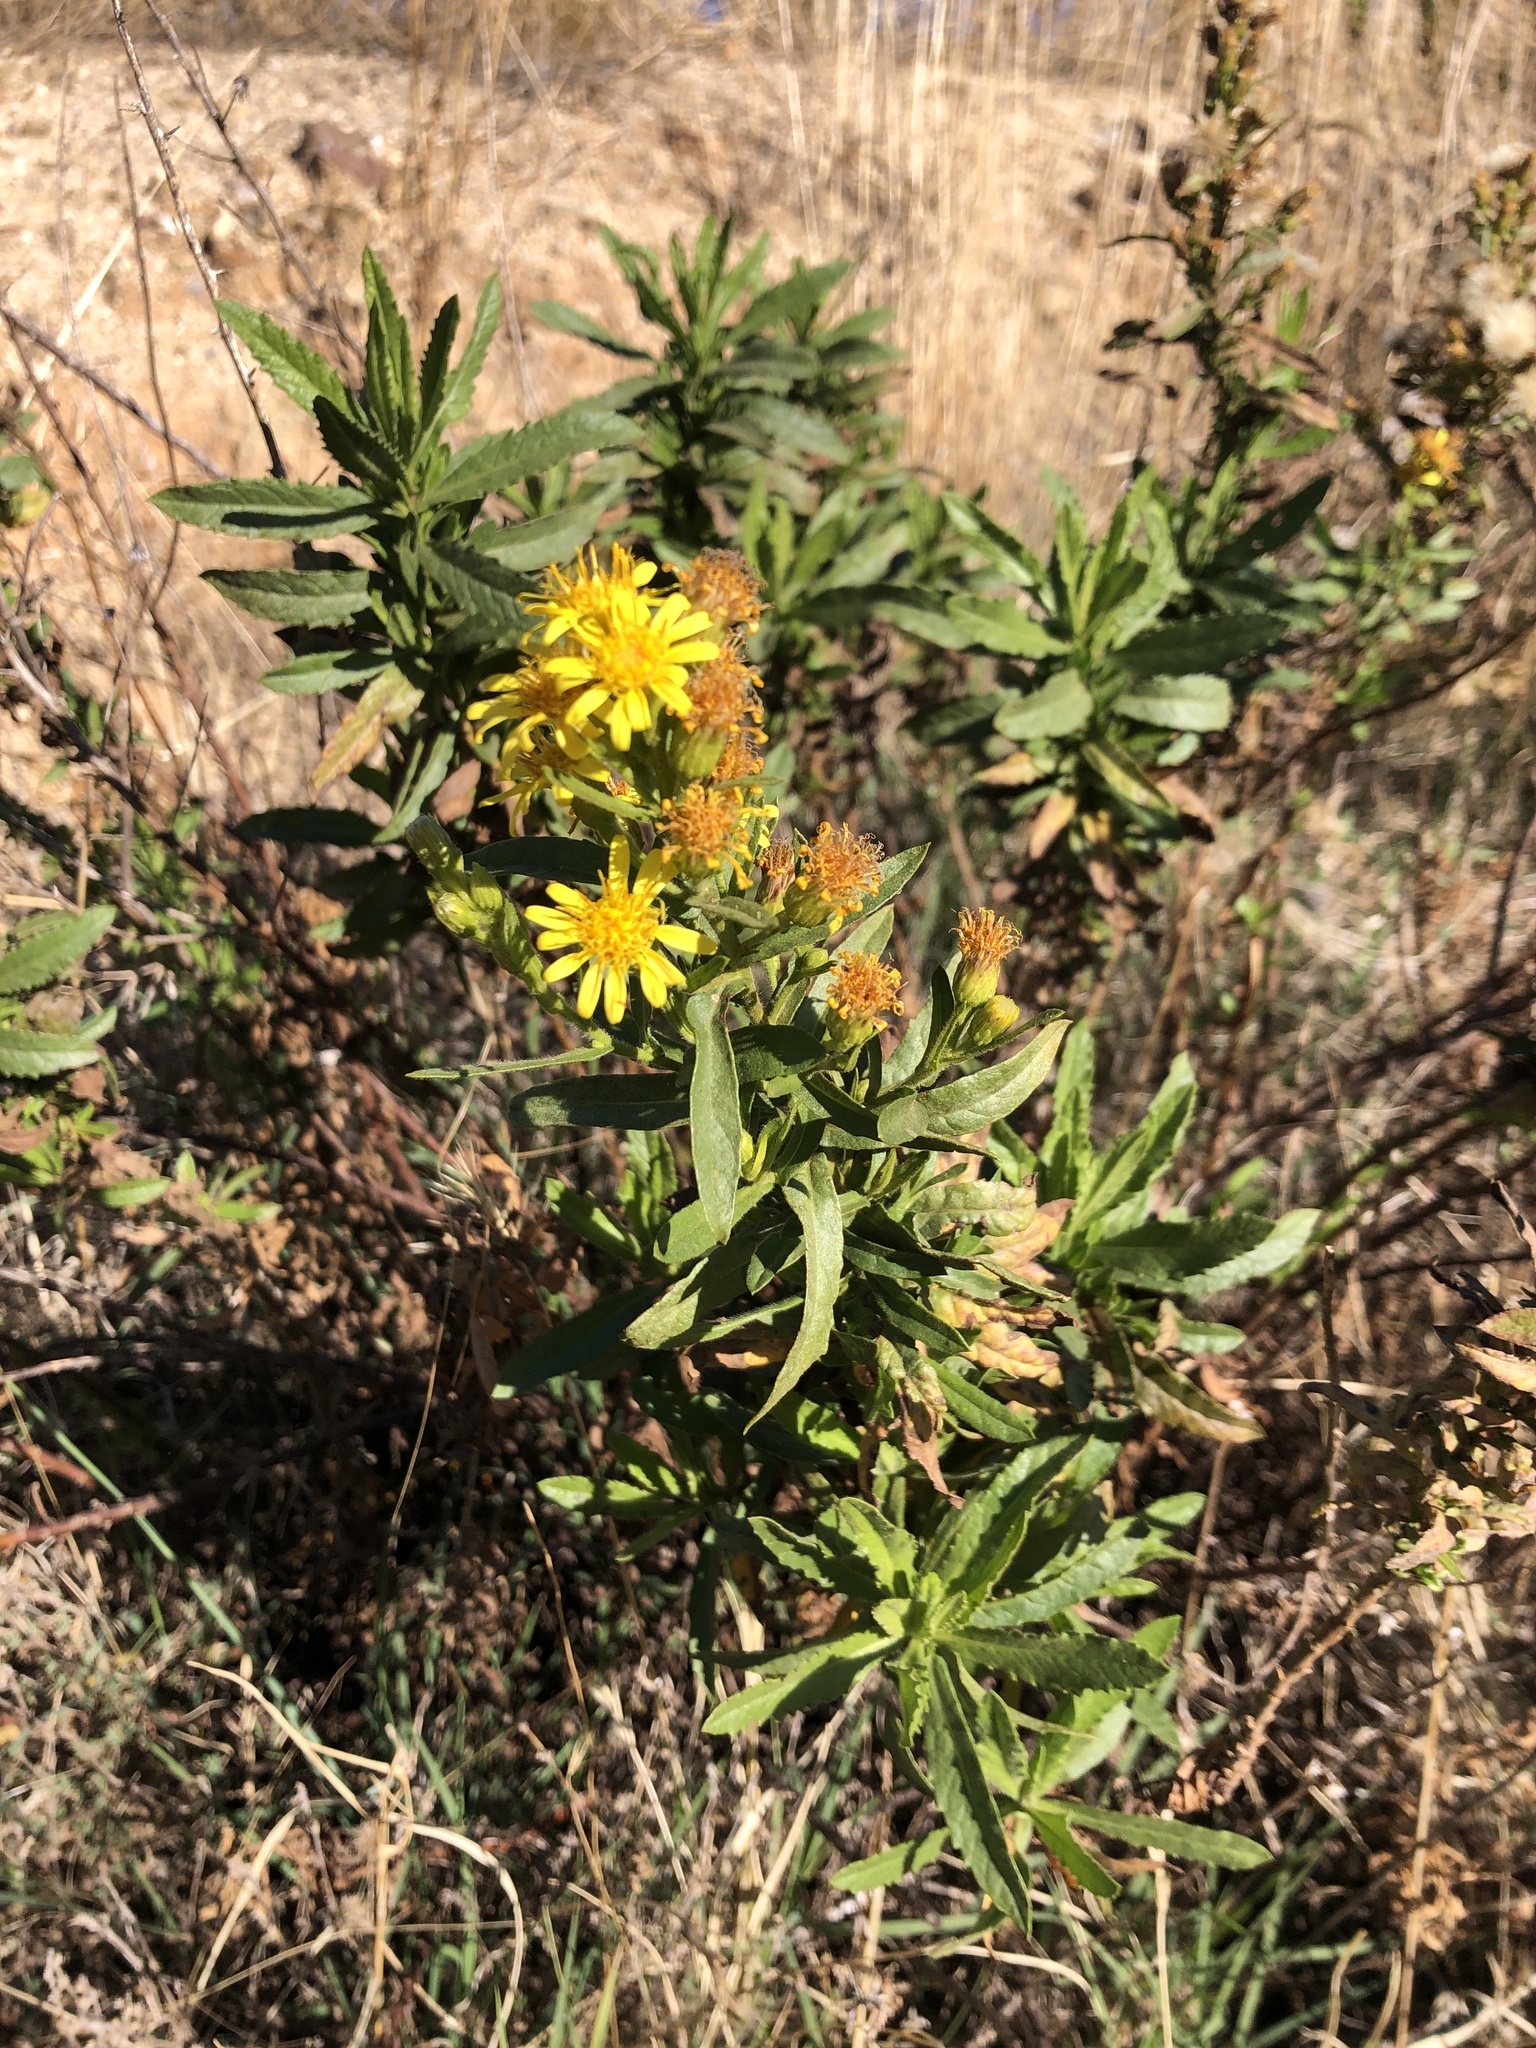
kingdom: Plantae
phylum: Tracheophyta
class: Magnoliopsida
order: Asterales
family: Asteraceae
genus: Dittrichia
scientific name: Dittrichia viscosa
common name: Woody fleabane
